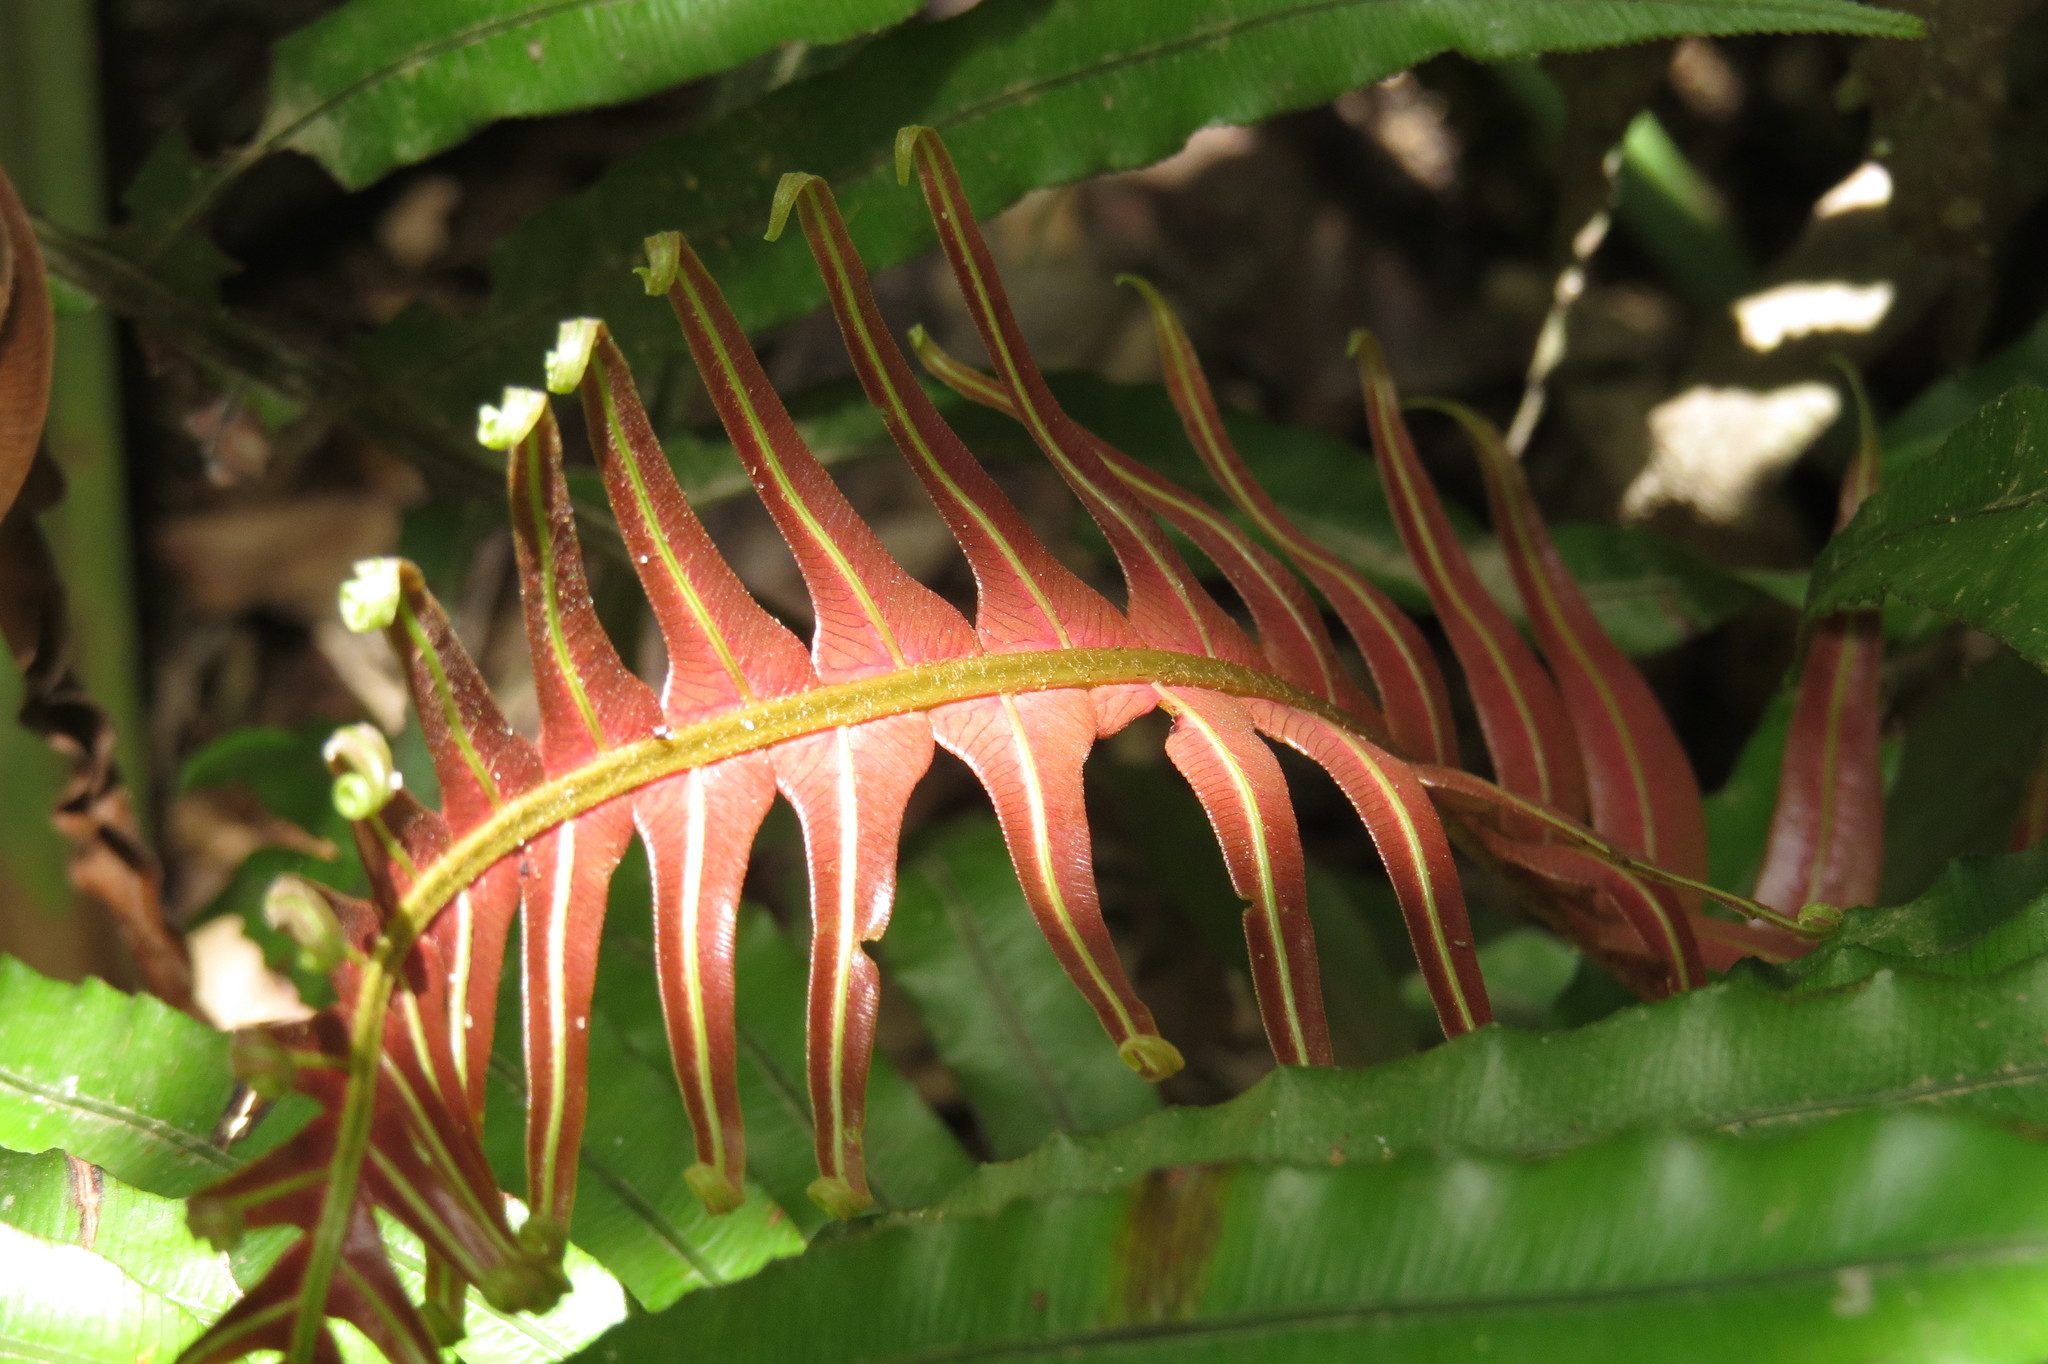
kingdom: Plantae
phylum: Tracheophyta
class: Polypodiopsida
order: Polypodiales
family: Blechnaceae
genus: Oceaniopteris
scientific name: Oceaniopteris cartilaginea
